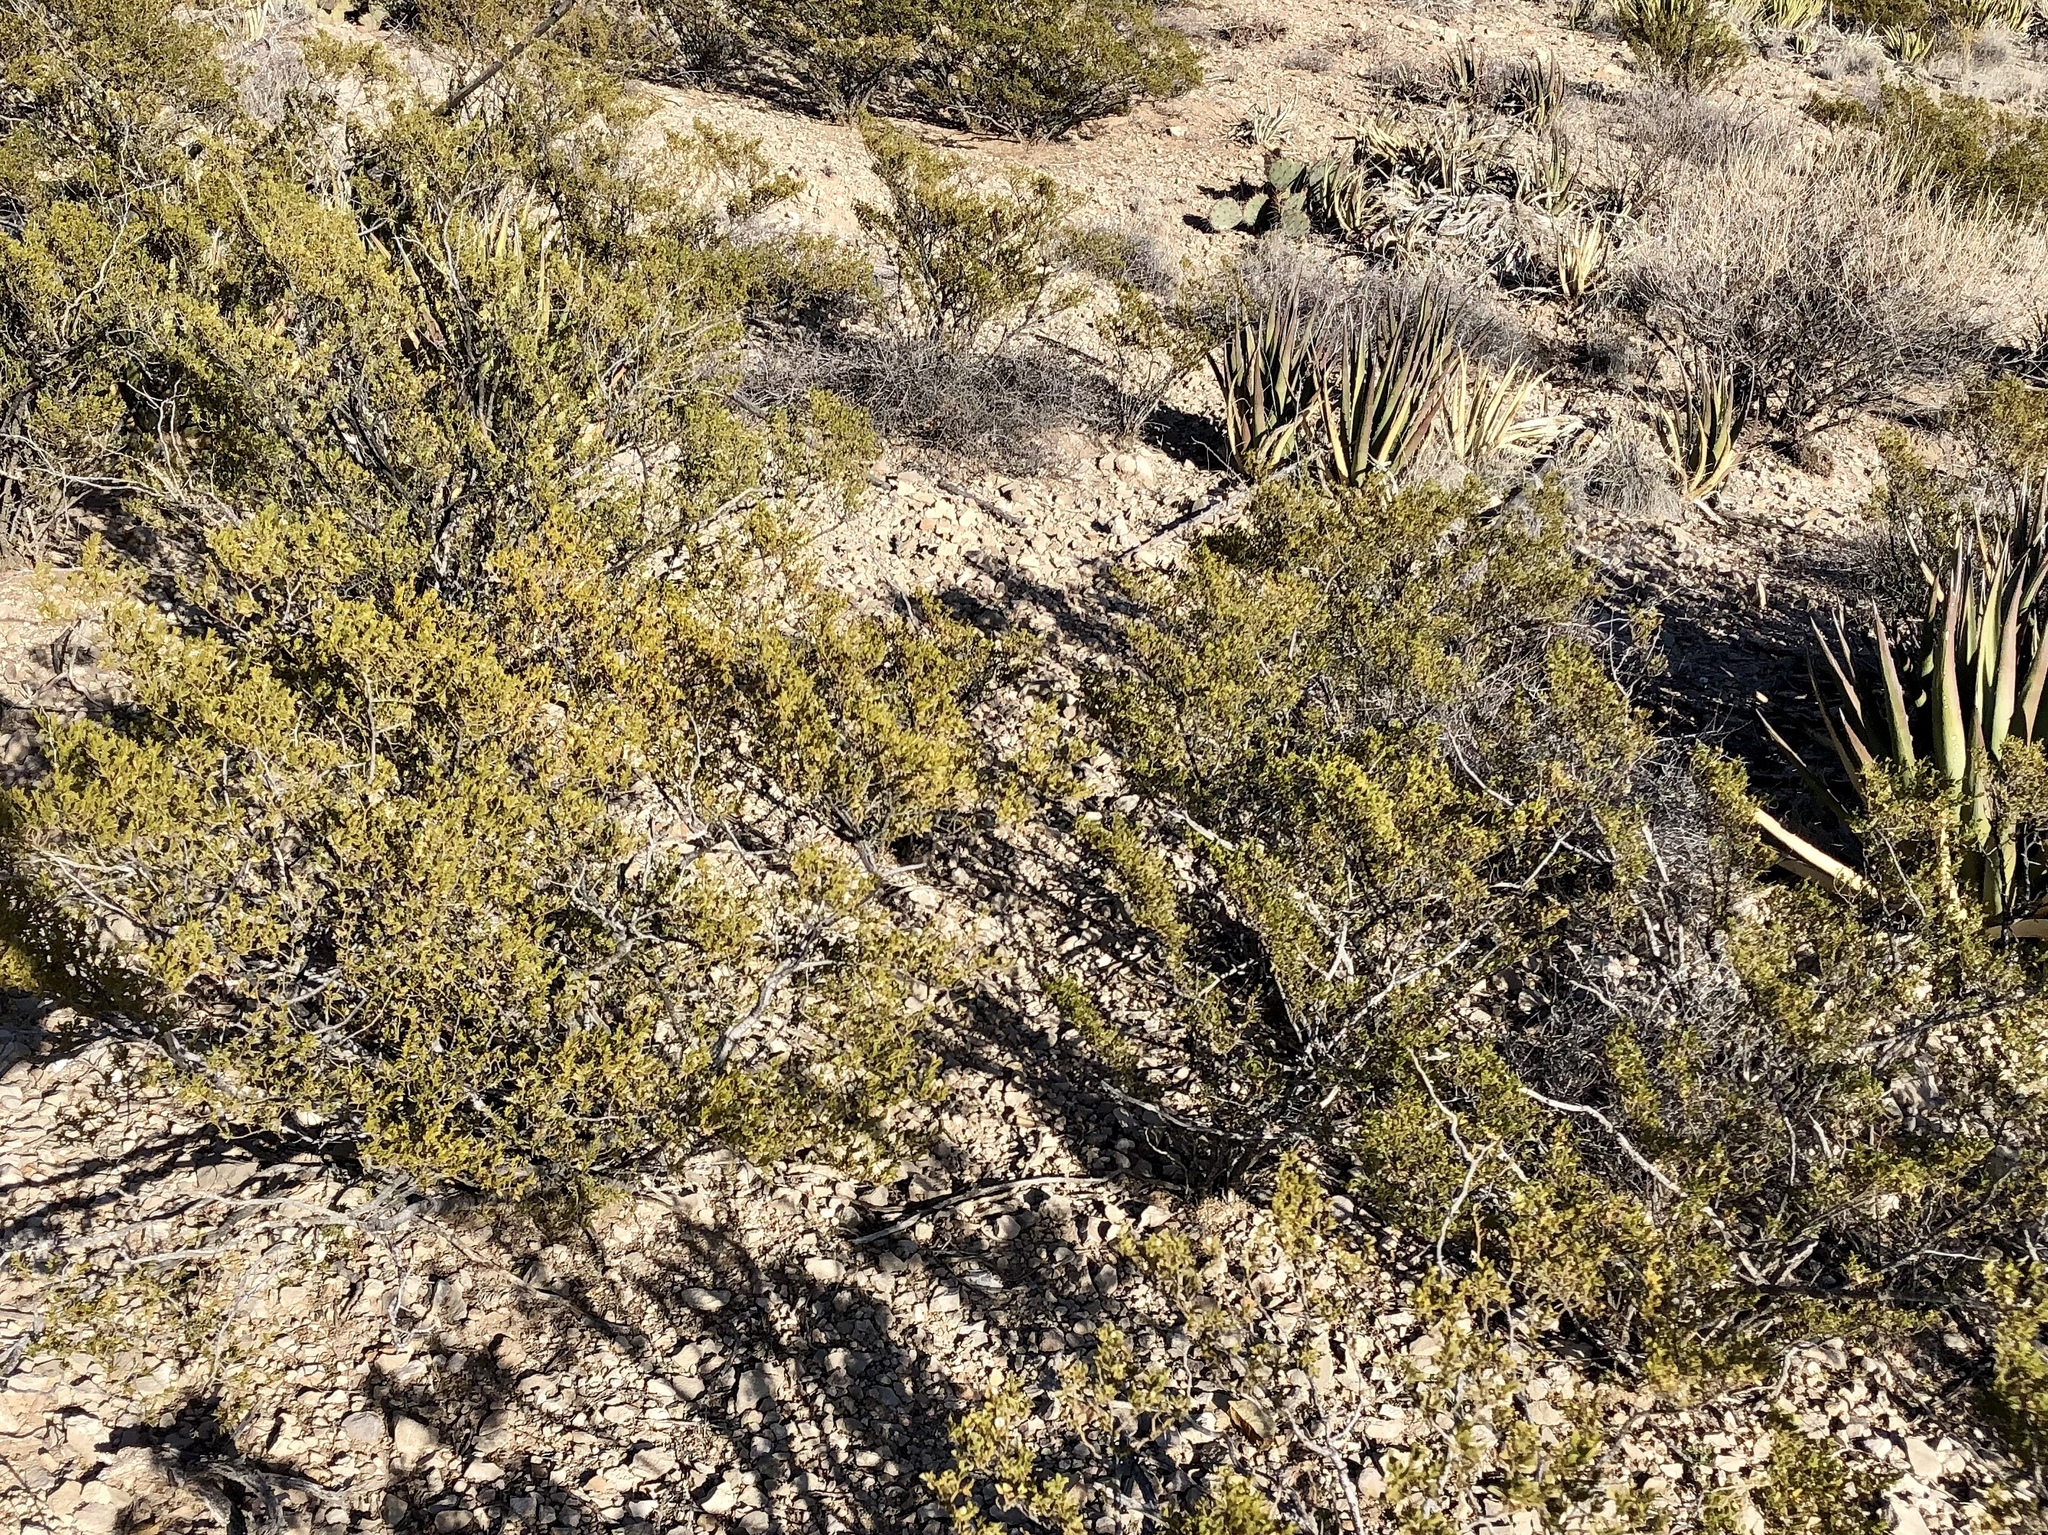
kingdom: Plantae
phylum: Tracheophyta
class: Magnoliopsida
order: Zygophyllales
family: Zygophyllaceae
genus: Larrea
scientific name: Larrea tridentata
